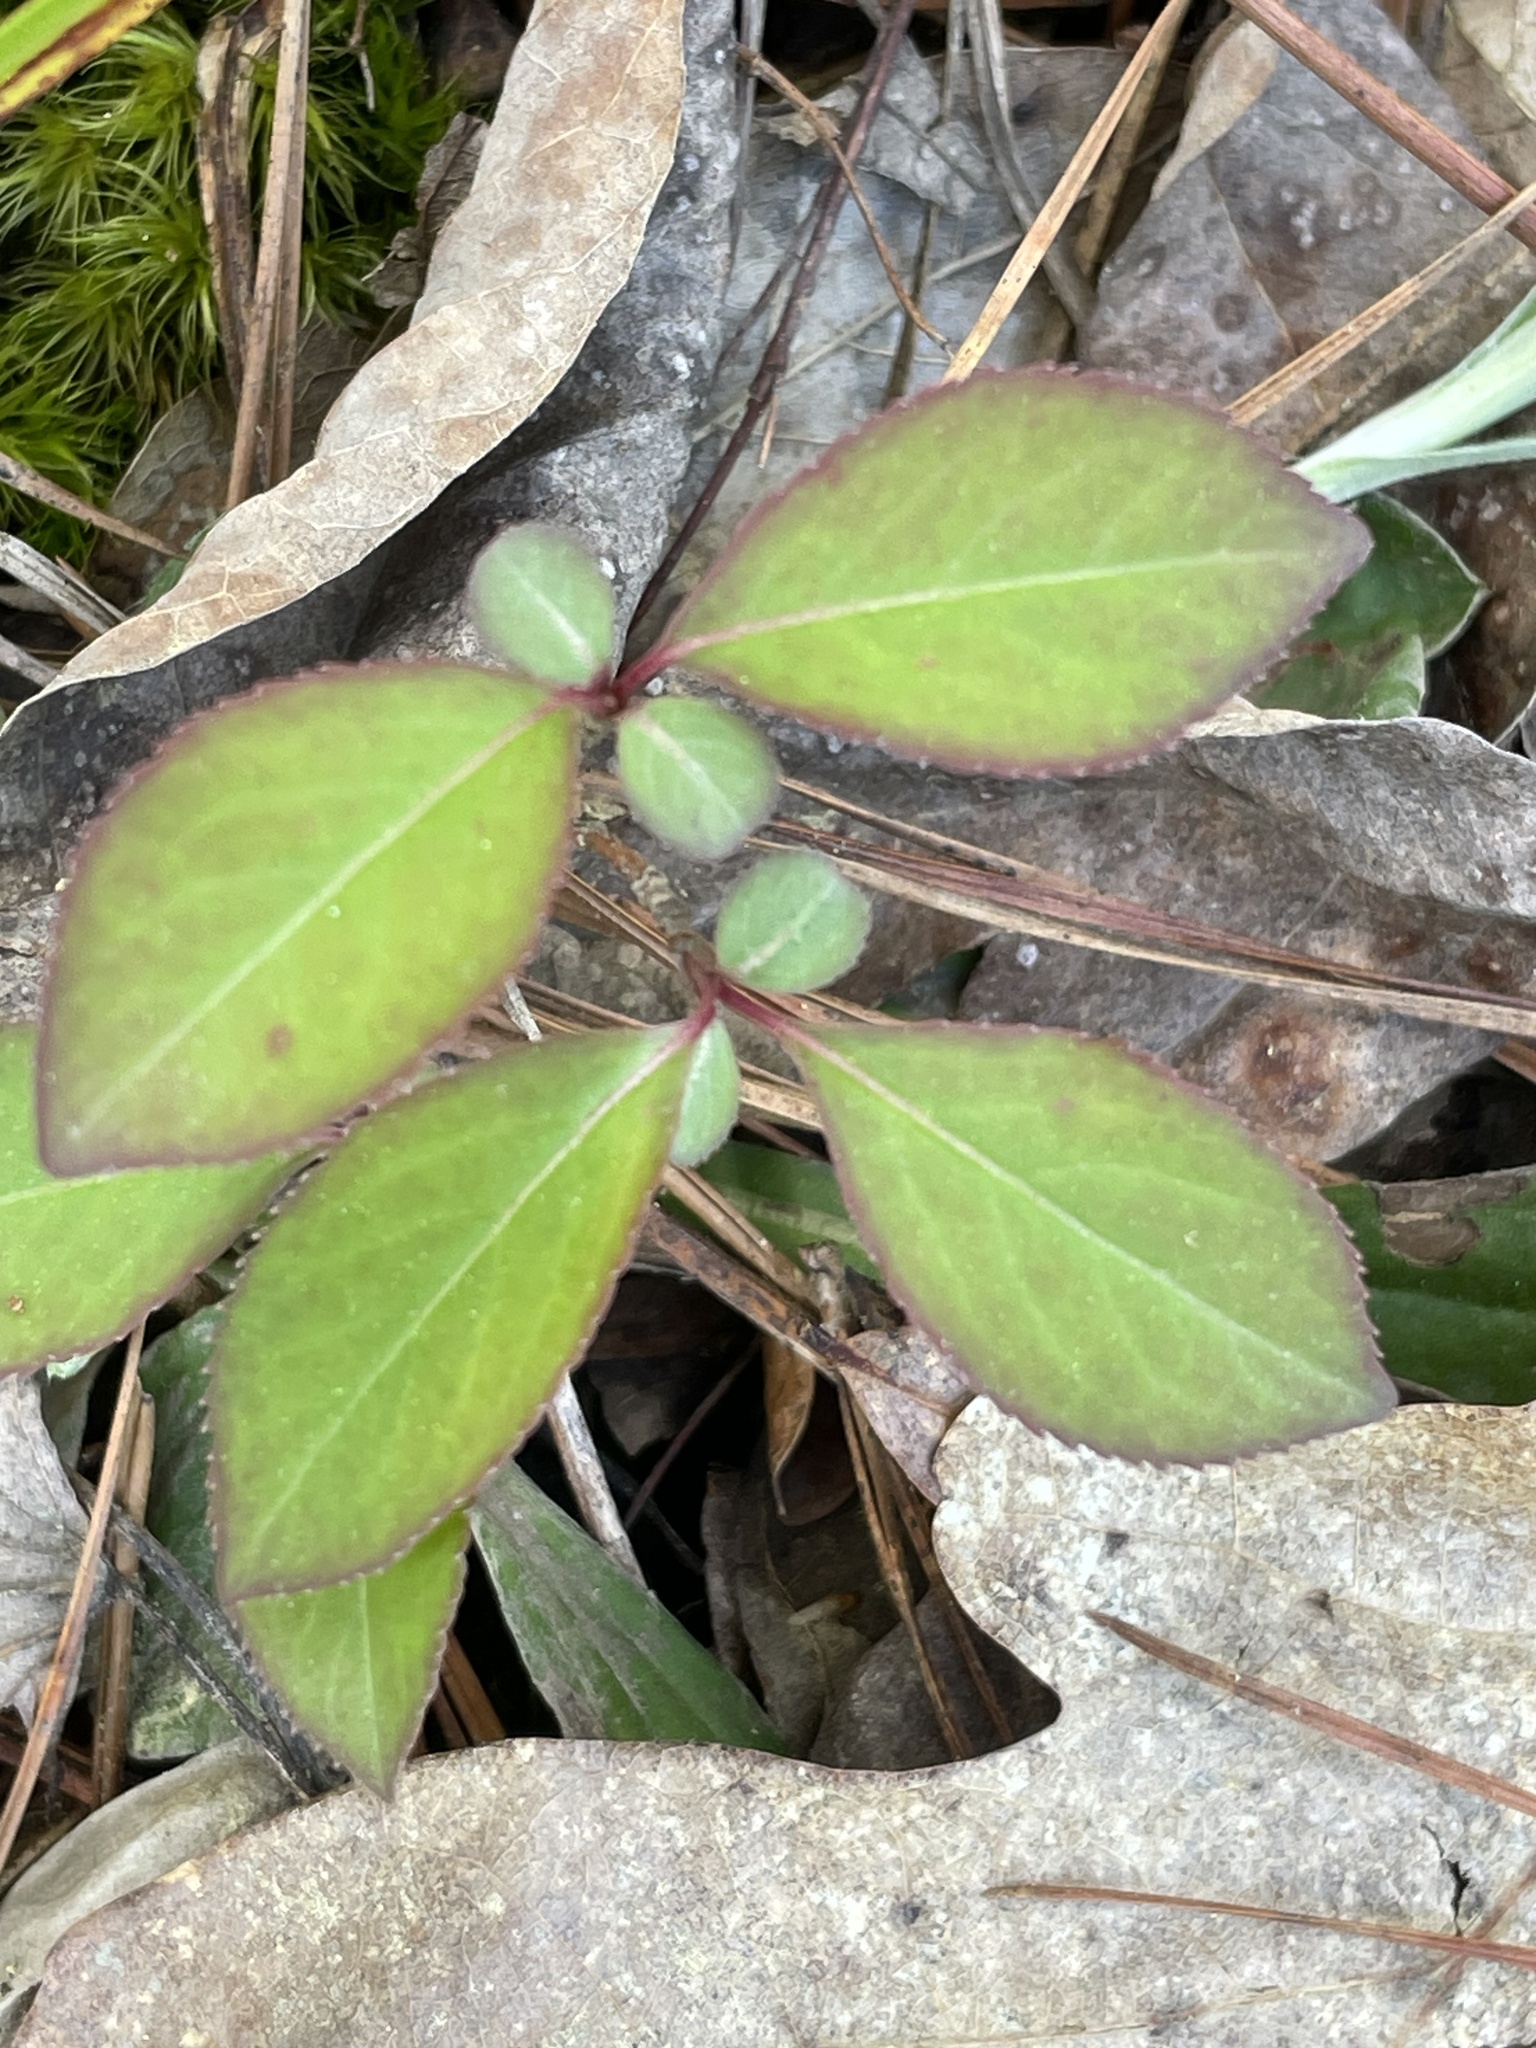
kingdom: Plantae
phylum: Tracheophyta
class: Magnoliopsida
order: Dipsacales
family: Viburnaceae
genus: Viburnum
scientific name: Viburnum prunifolium
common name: Black haw
